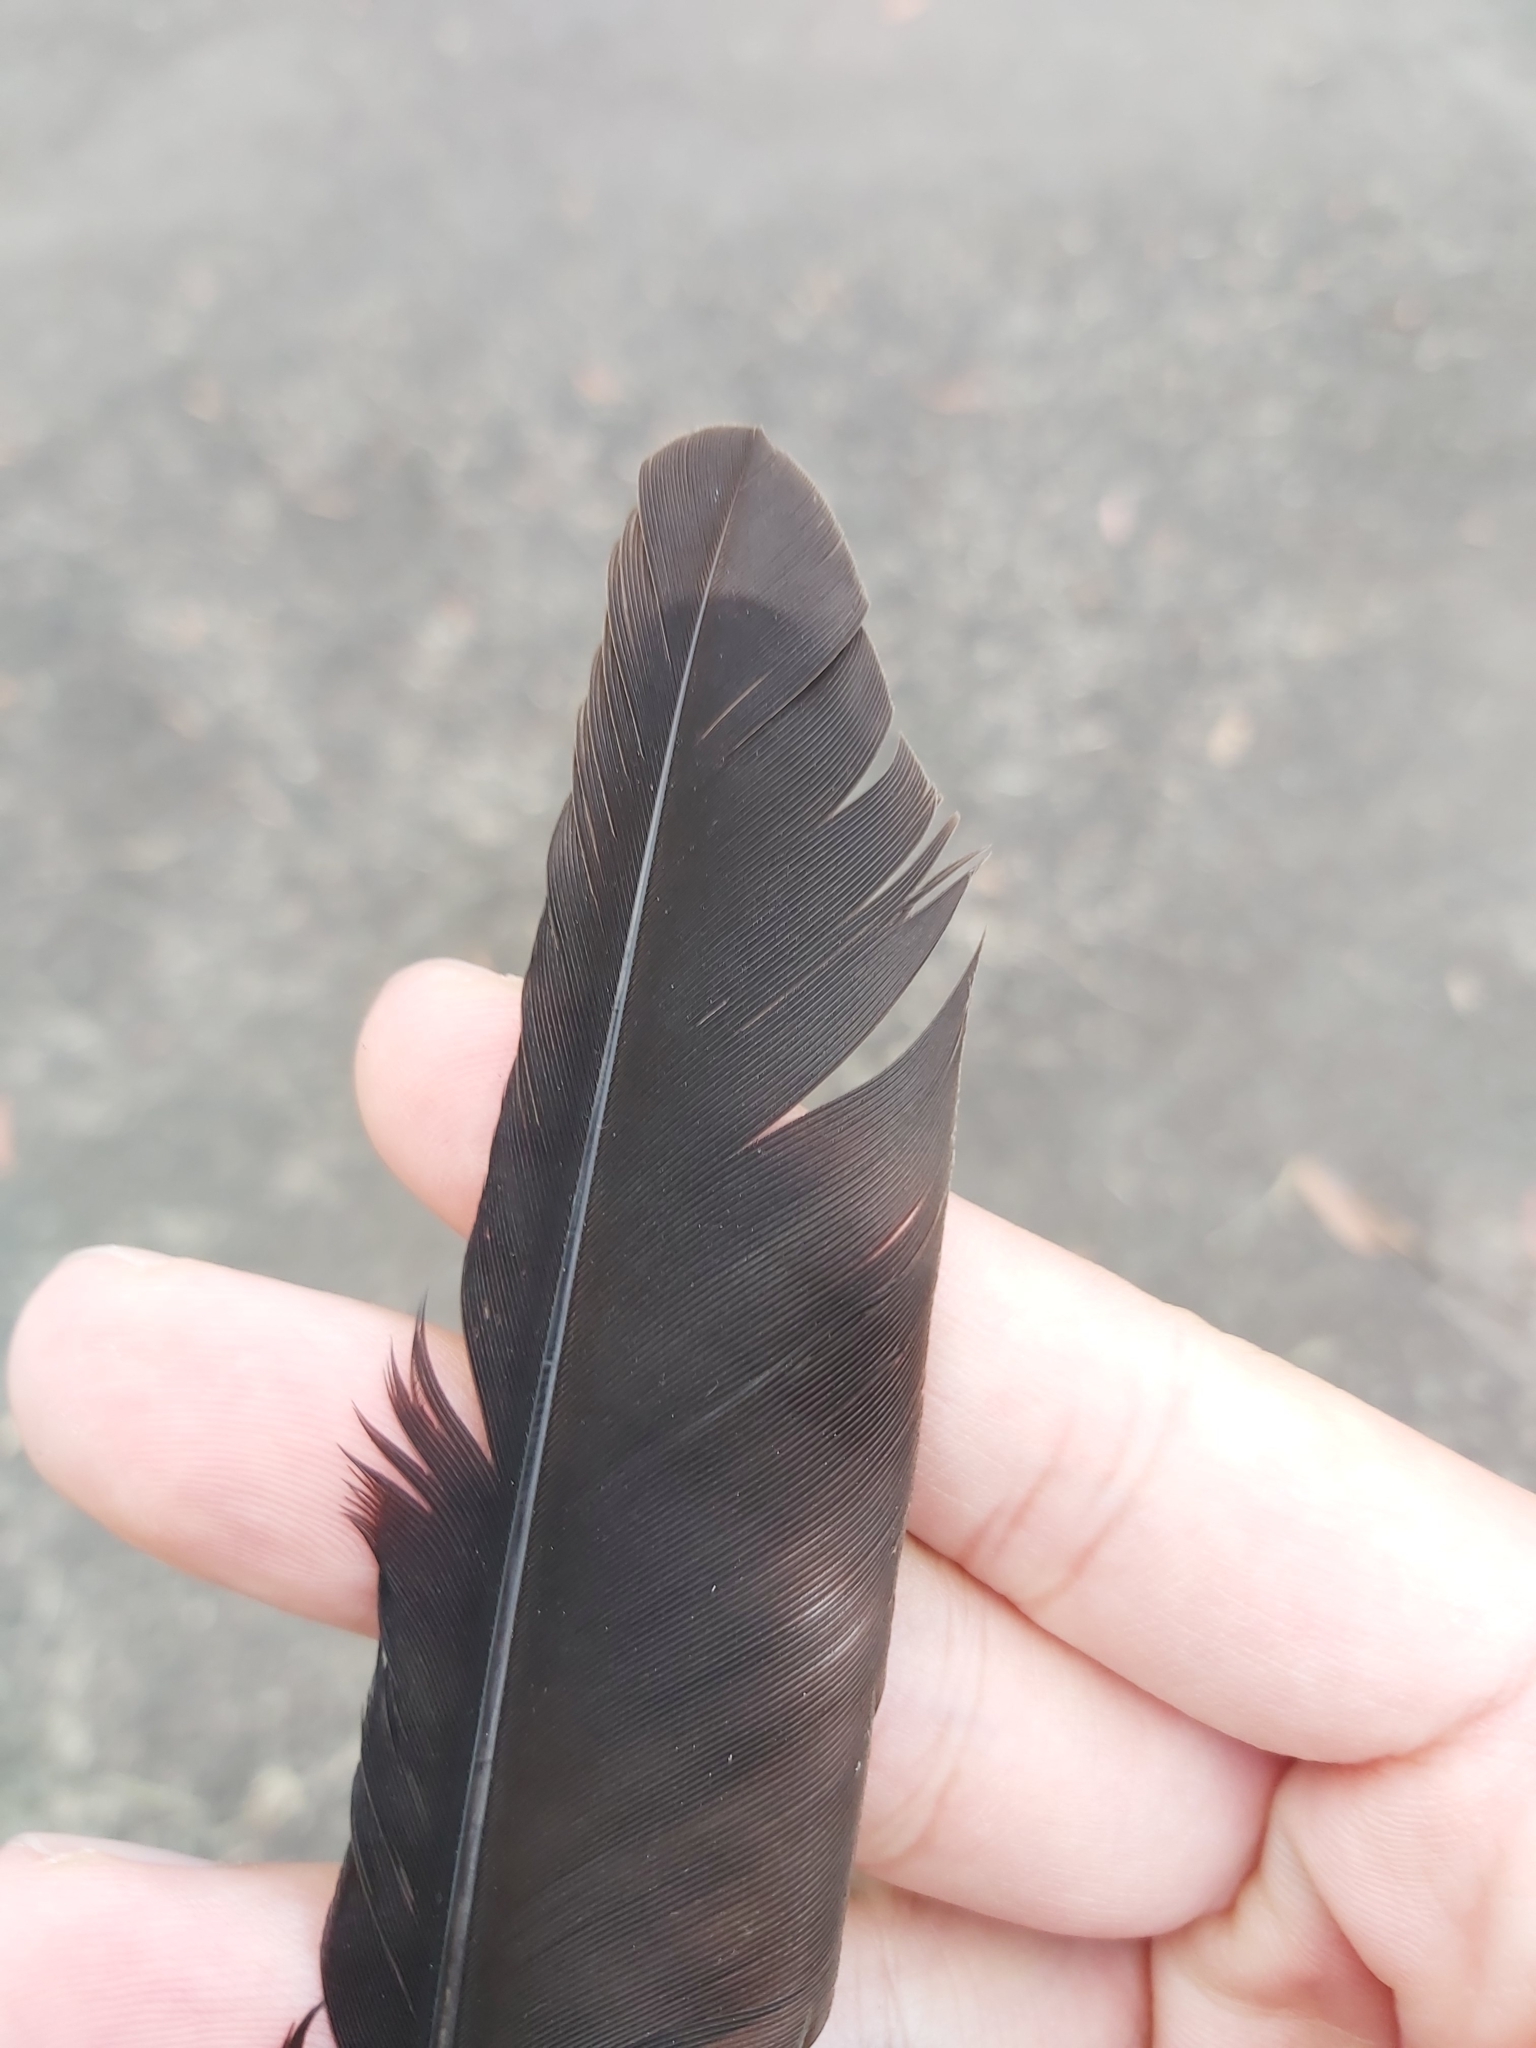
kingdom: Animalia
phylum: Chordata
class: Aves
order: Passeriformes
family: Cracticidae
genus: Gymnorhina
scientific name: Gymnorhina tibicen
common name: Australian magpie
